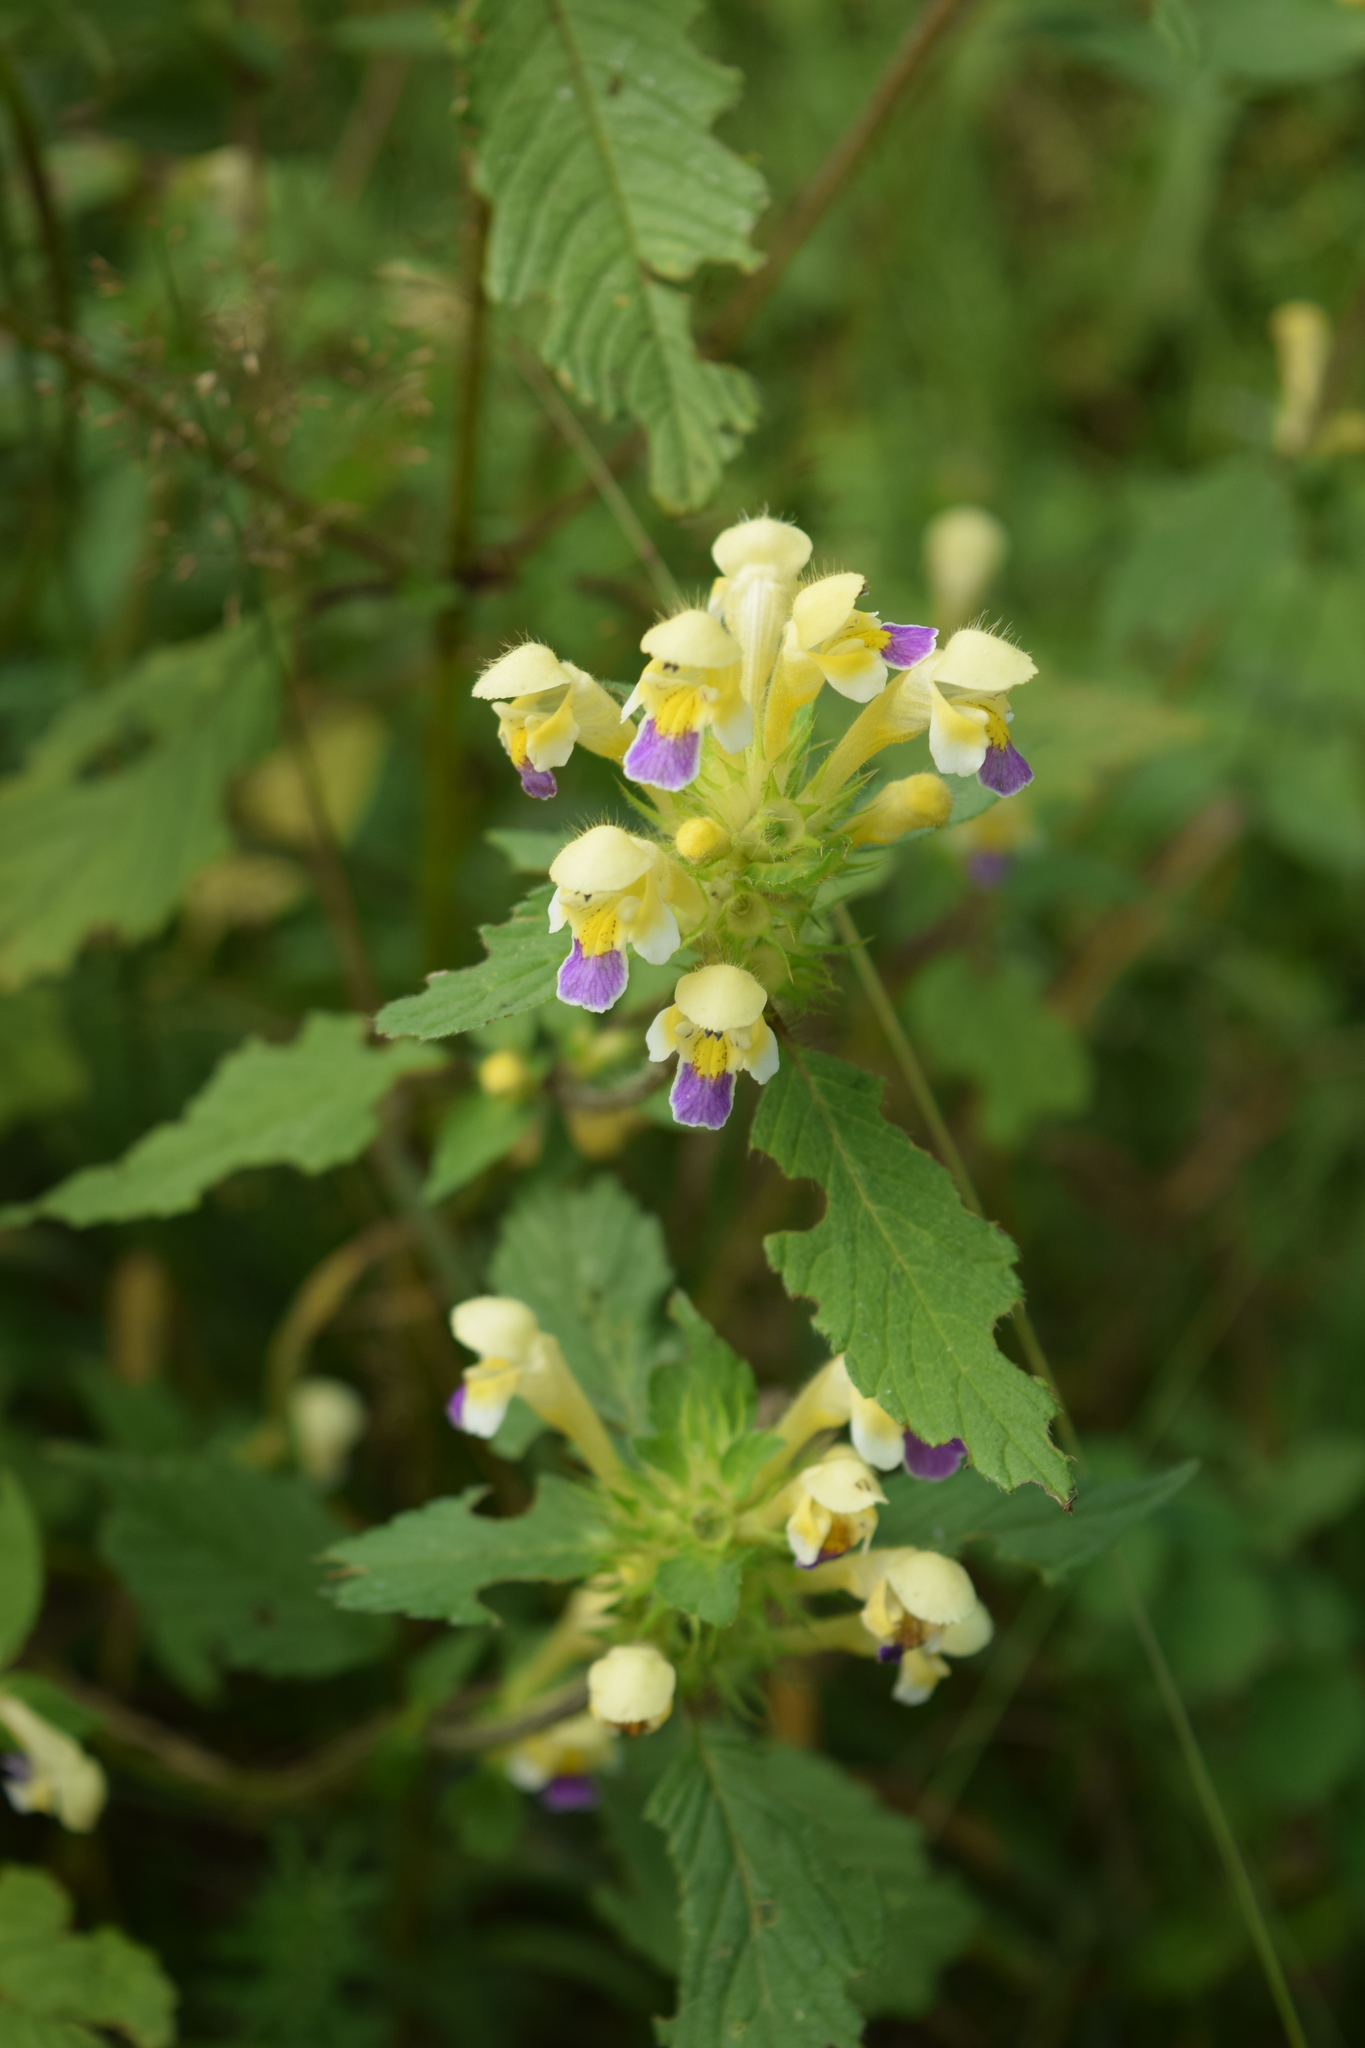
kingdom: Plantae
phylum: Tracheophyta
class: Magnoliopsida
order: Lamiales
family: Lamiaceae
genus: Galeopsis
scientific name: Galeopsis speciosa
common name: Large-flowered hemp-nettle
